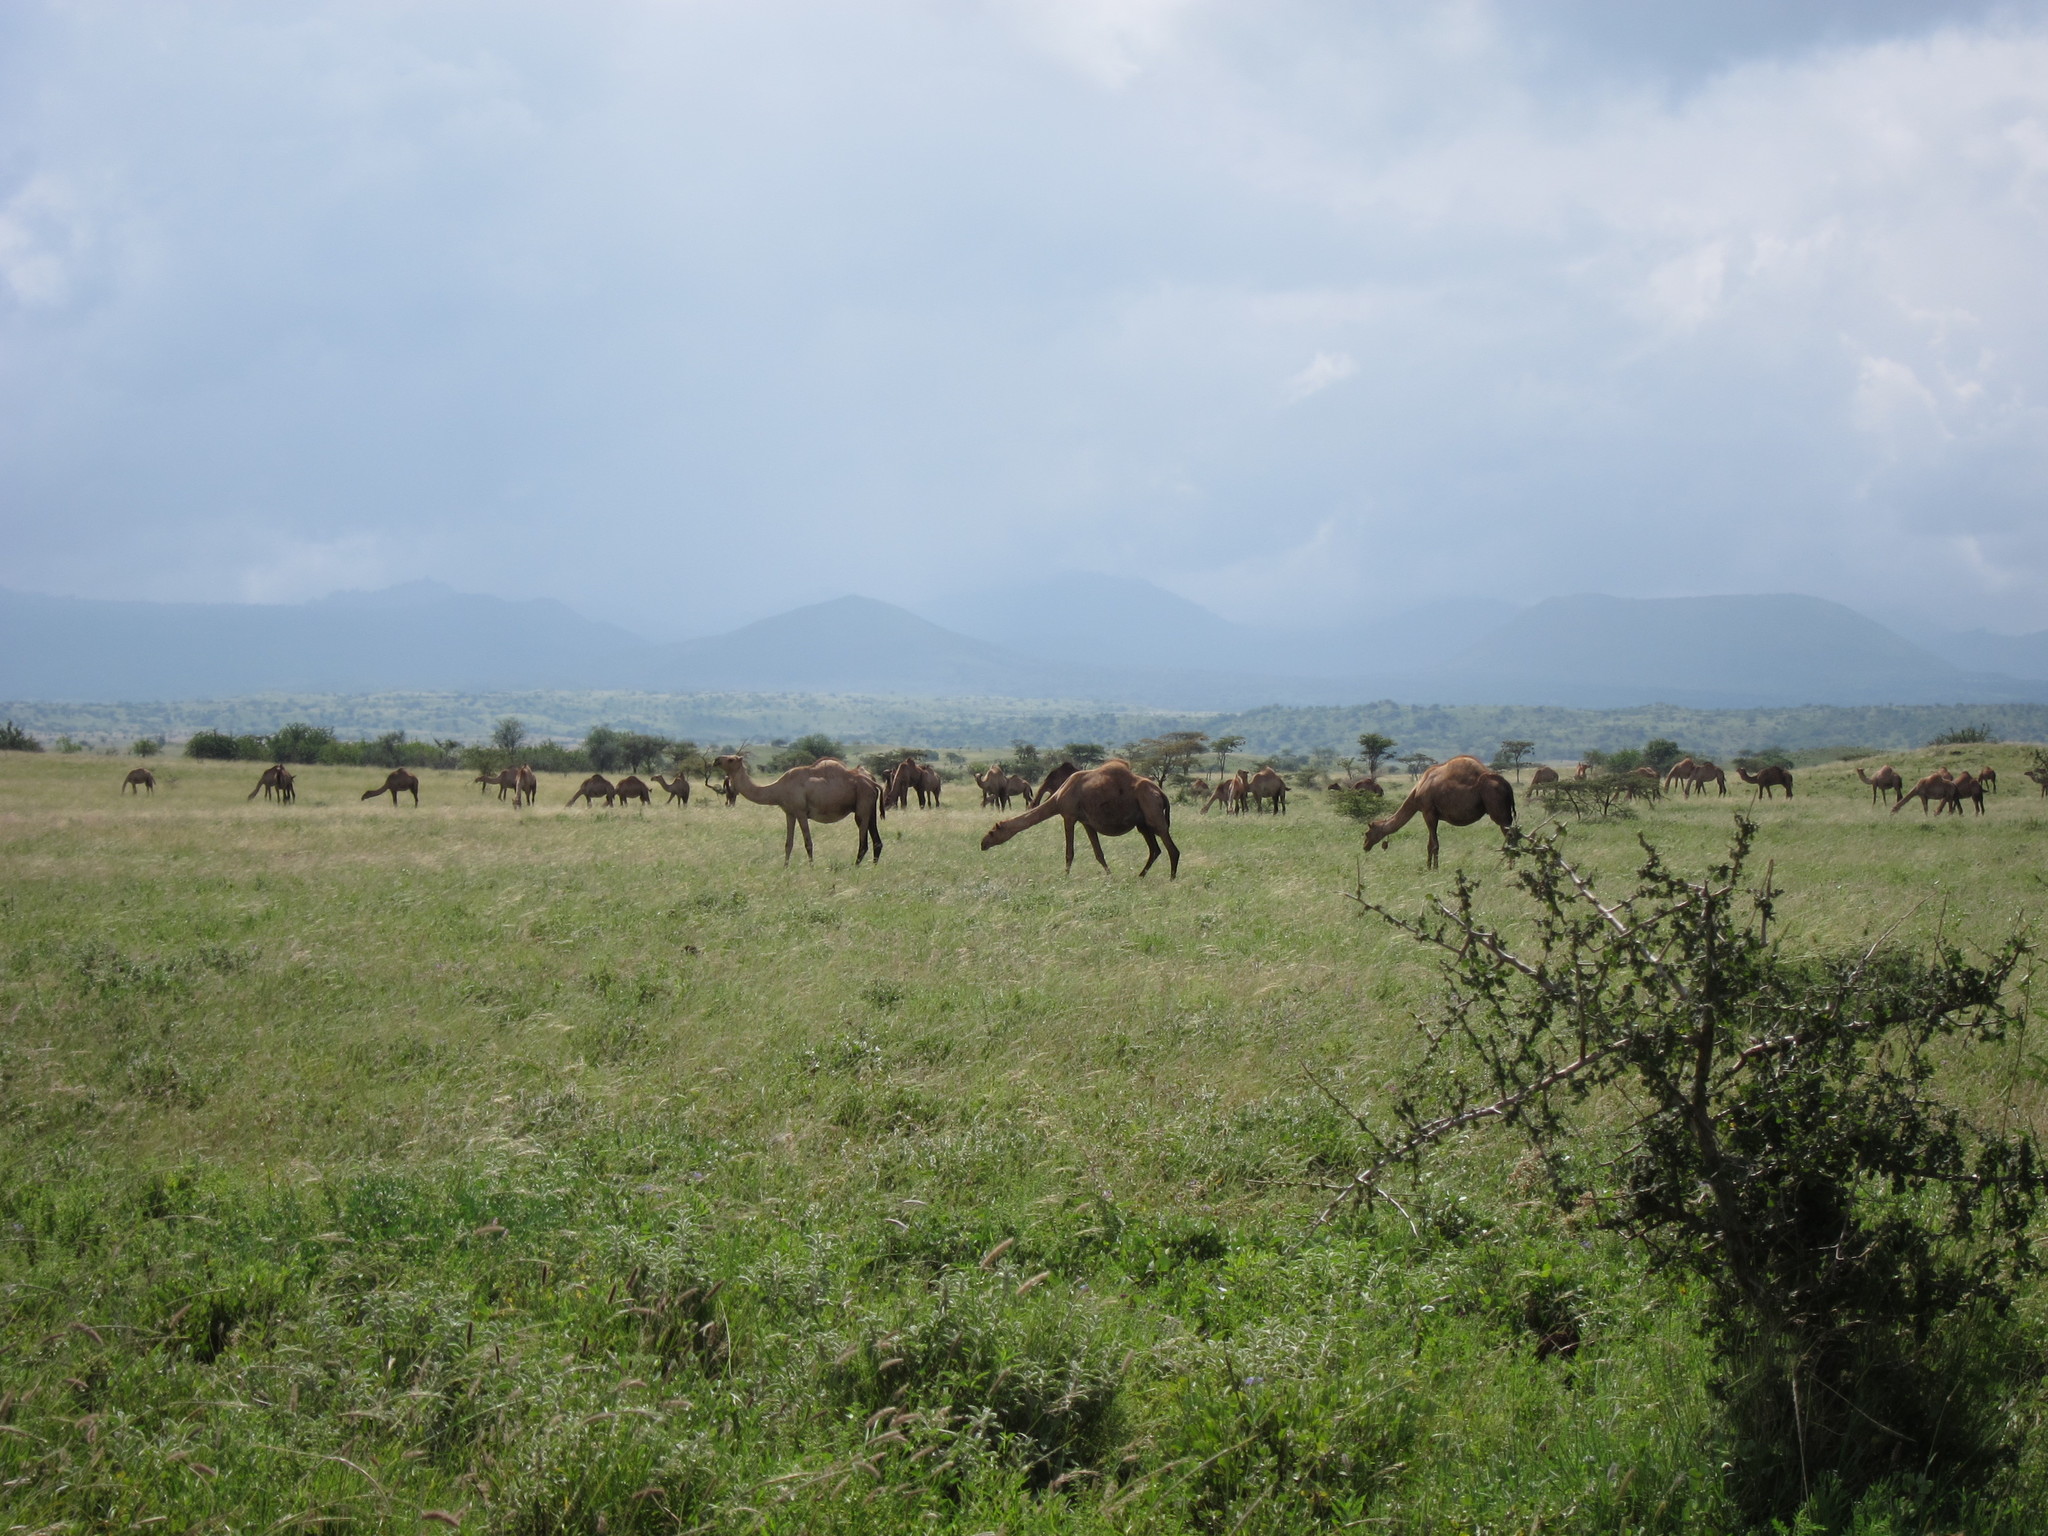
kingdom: Animalia
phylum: Chordata
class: Mammalia
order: Artiodactyla
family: Camelidae
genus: Camelus
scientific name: Camelus dromedarius
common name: One-humped camel
